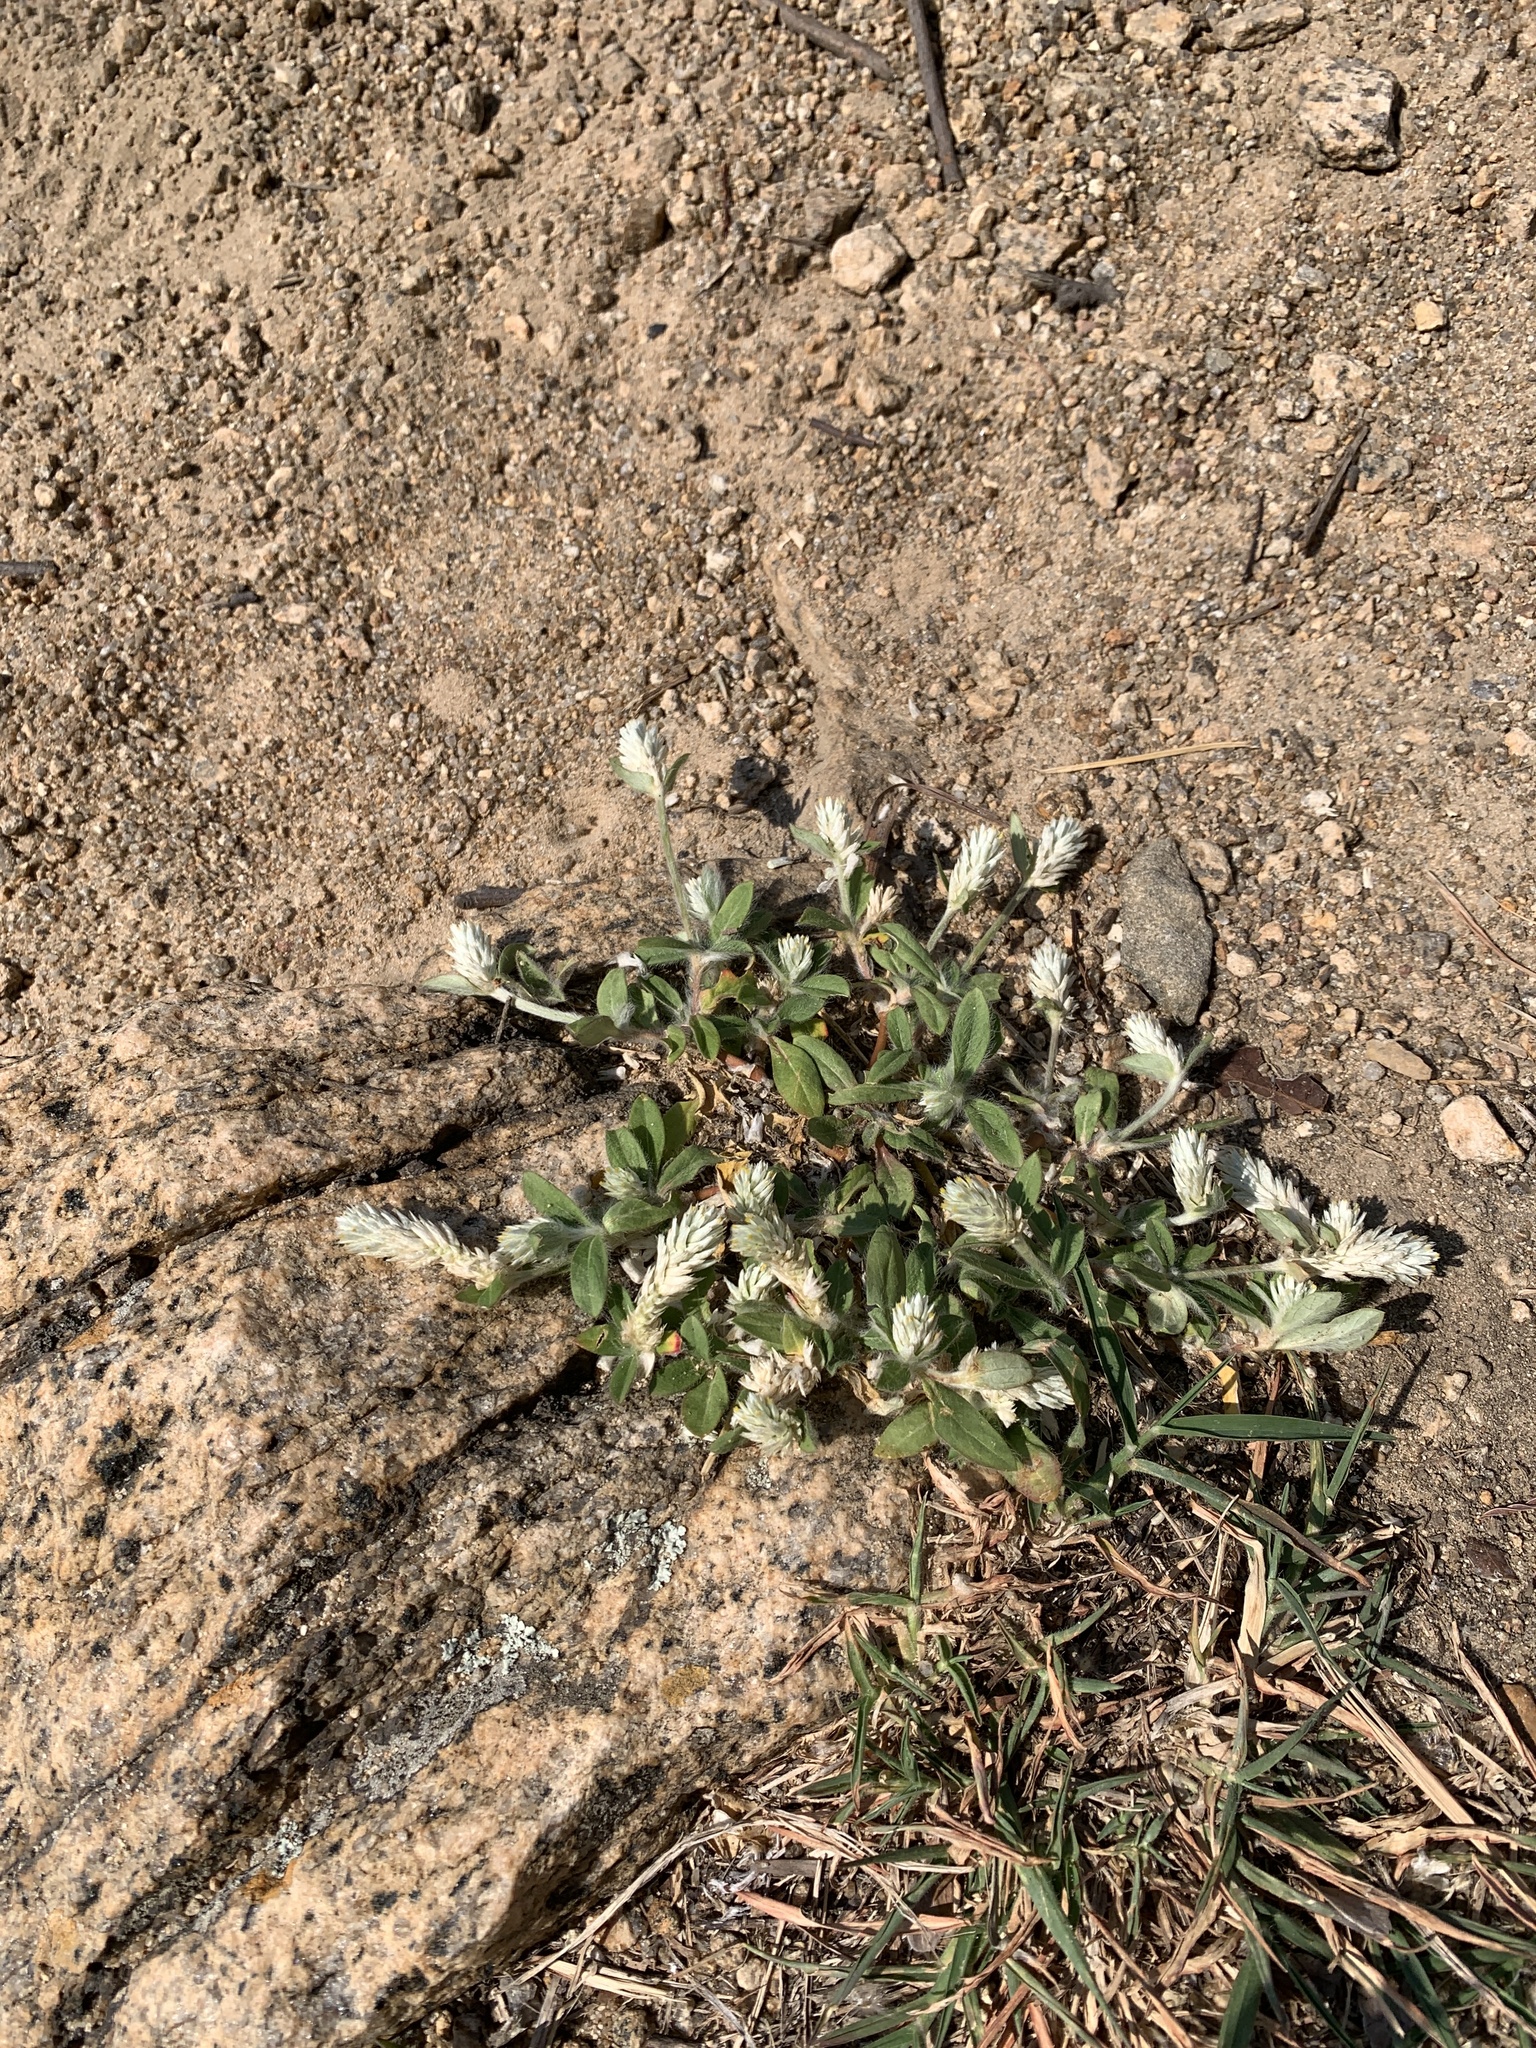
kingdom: Plantae
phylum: Tracheophyta
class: Magnoliopsida
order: Caryophyllales
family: Amaranthaceae
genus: Gomphrena
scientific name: Gomphrena celosioides
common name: Gomphrena-weed
